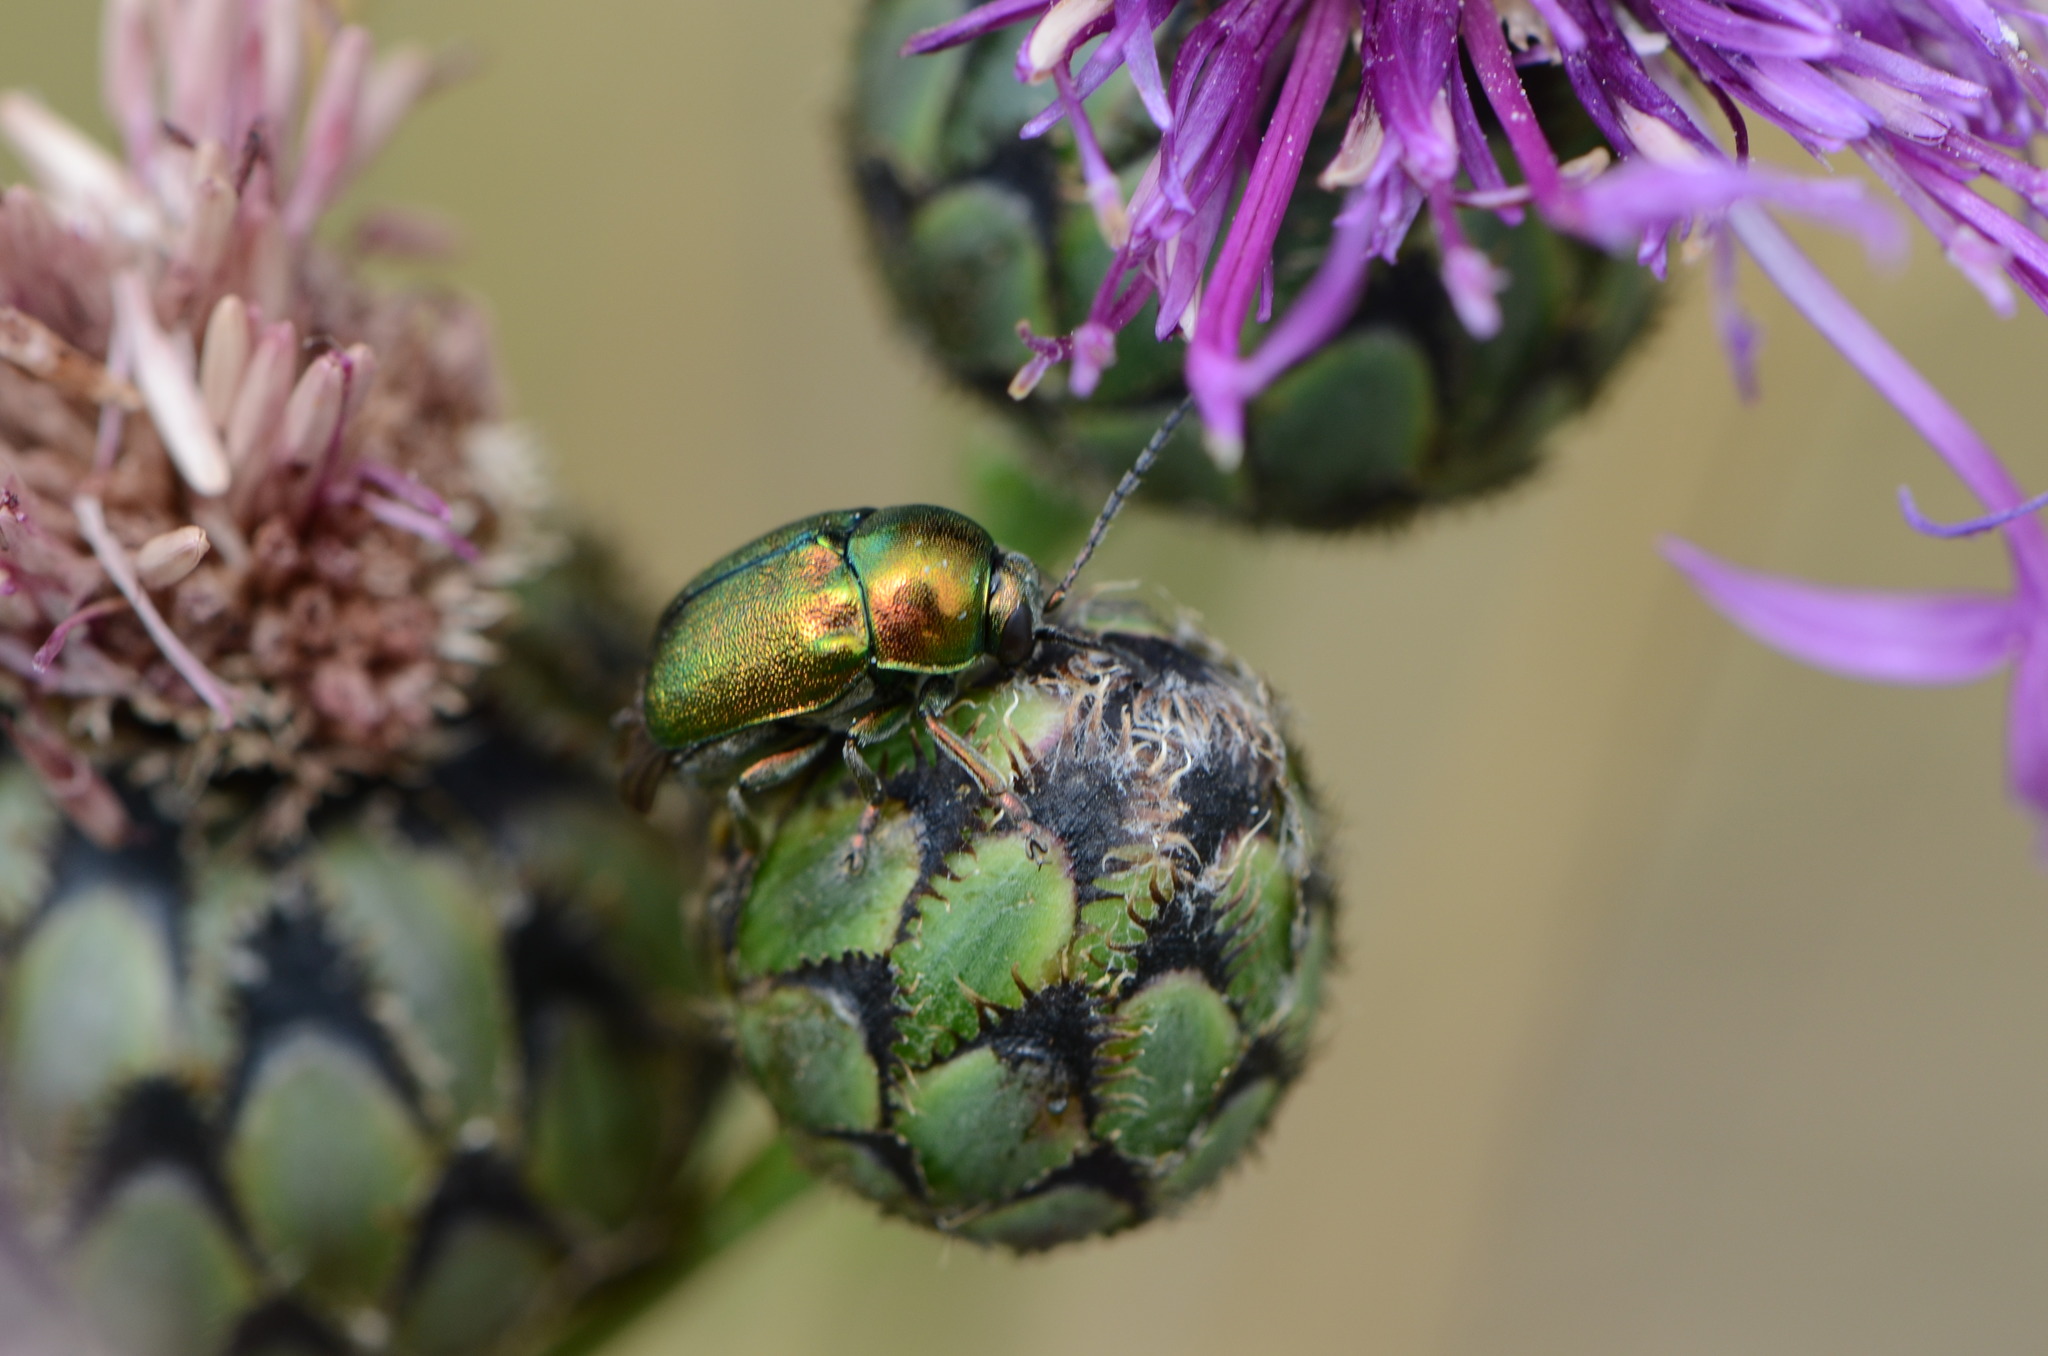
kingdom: Animalia
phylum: Arthropoda
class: Insecta
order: Coleoptera
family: Chrysomelidae
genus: Cryptocephalus
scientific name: Cryptocephalus
